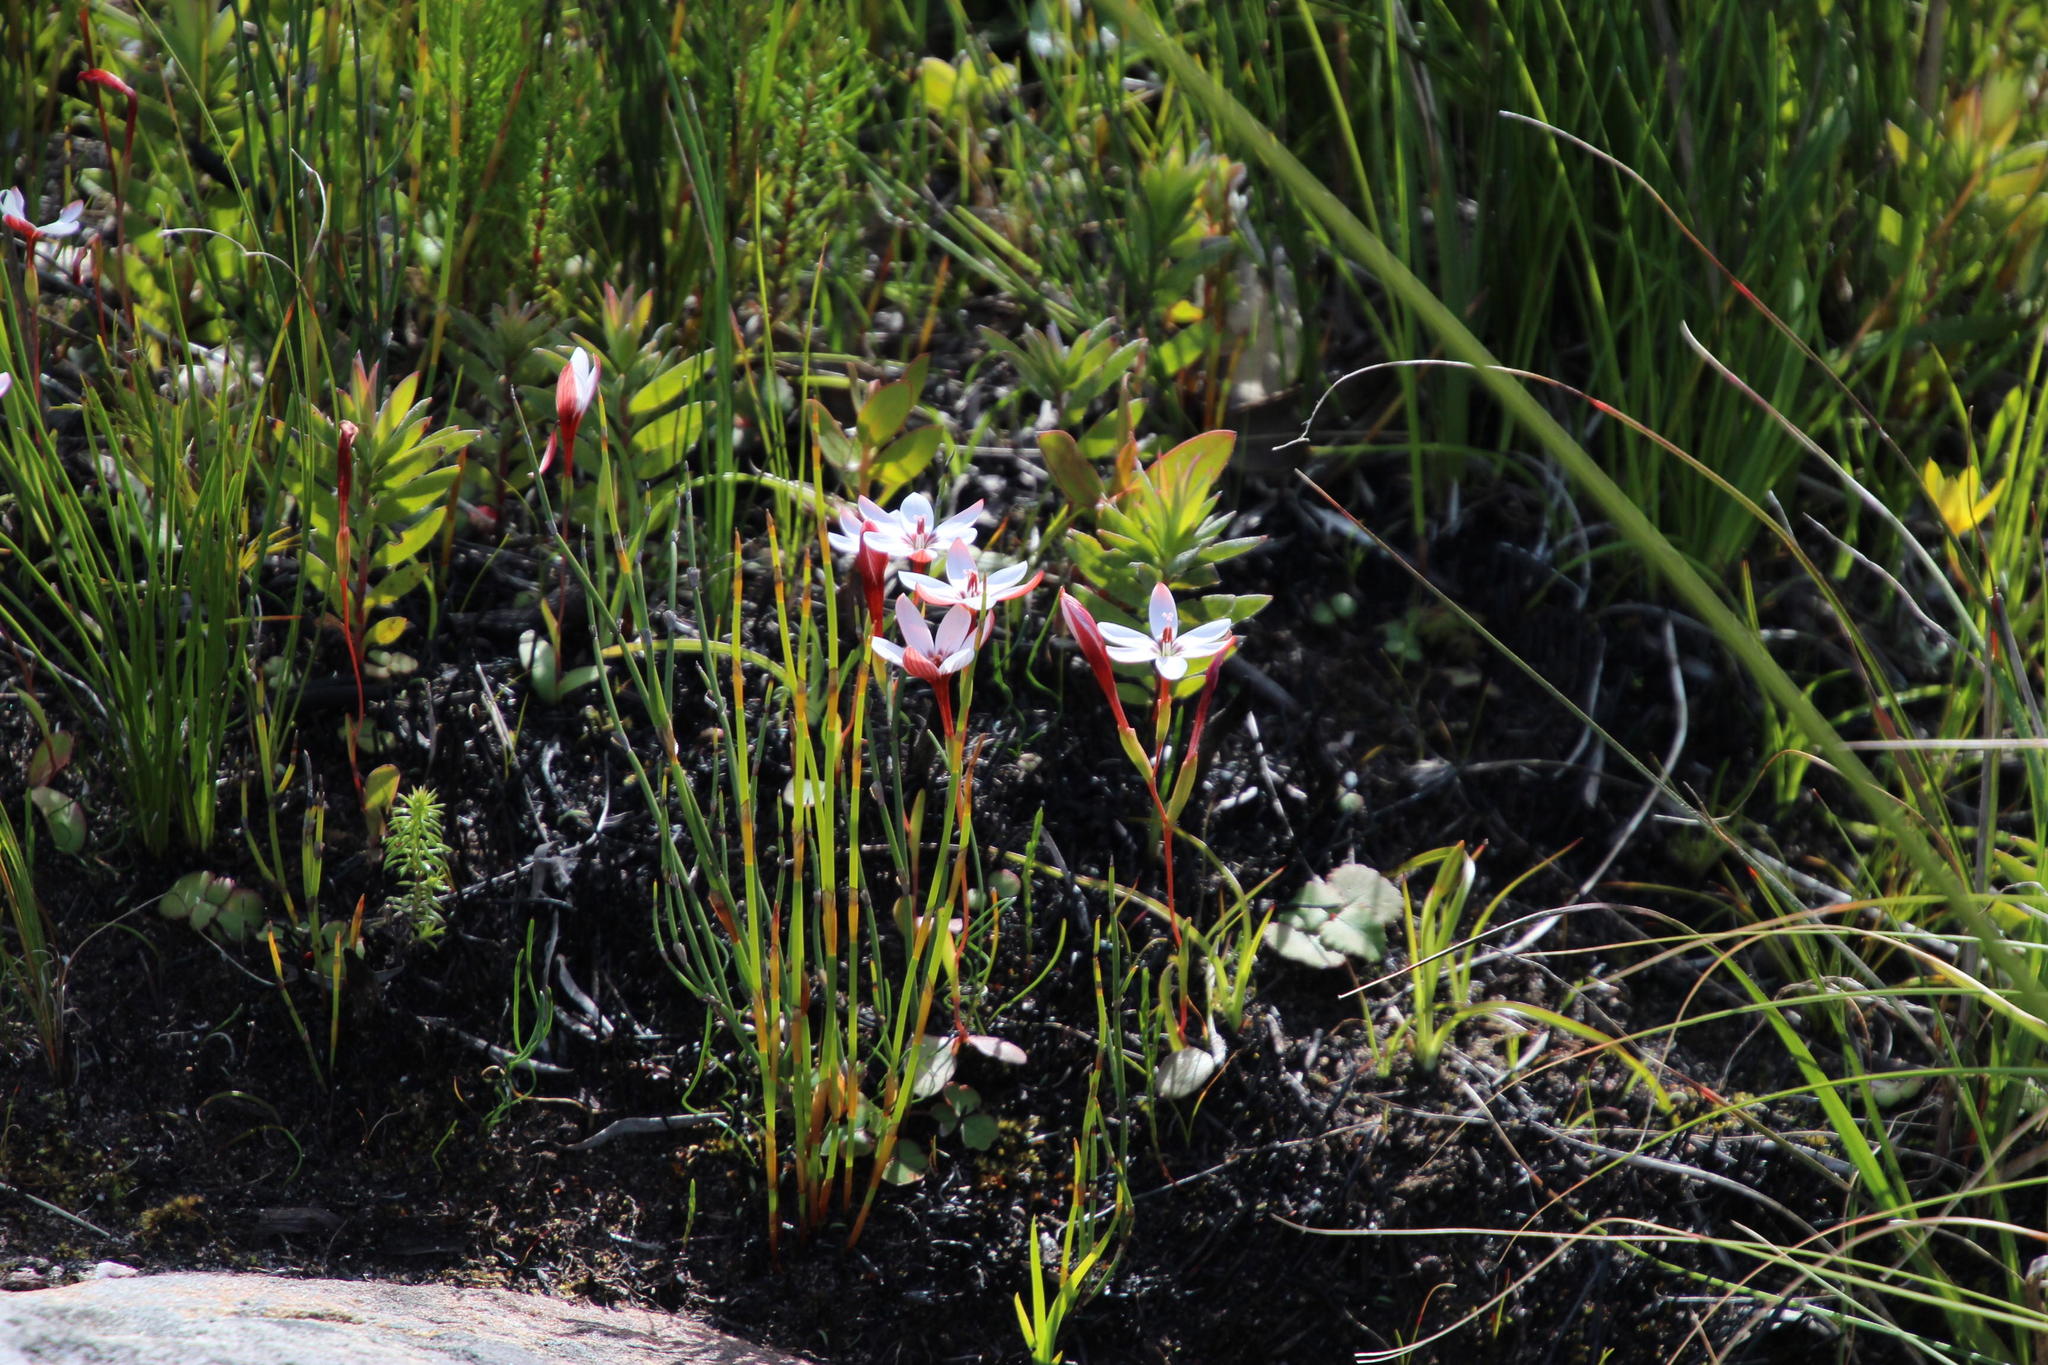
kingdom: Plantae
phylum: Tracheophyta
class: Liliopsida
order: Asparagales
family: Iridaceae
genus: Geissorhiza
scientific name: Geissorhiza ovata
